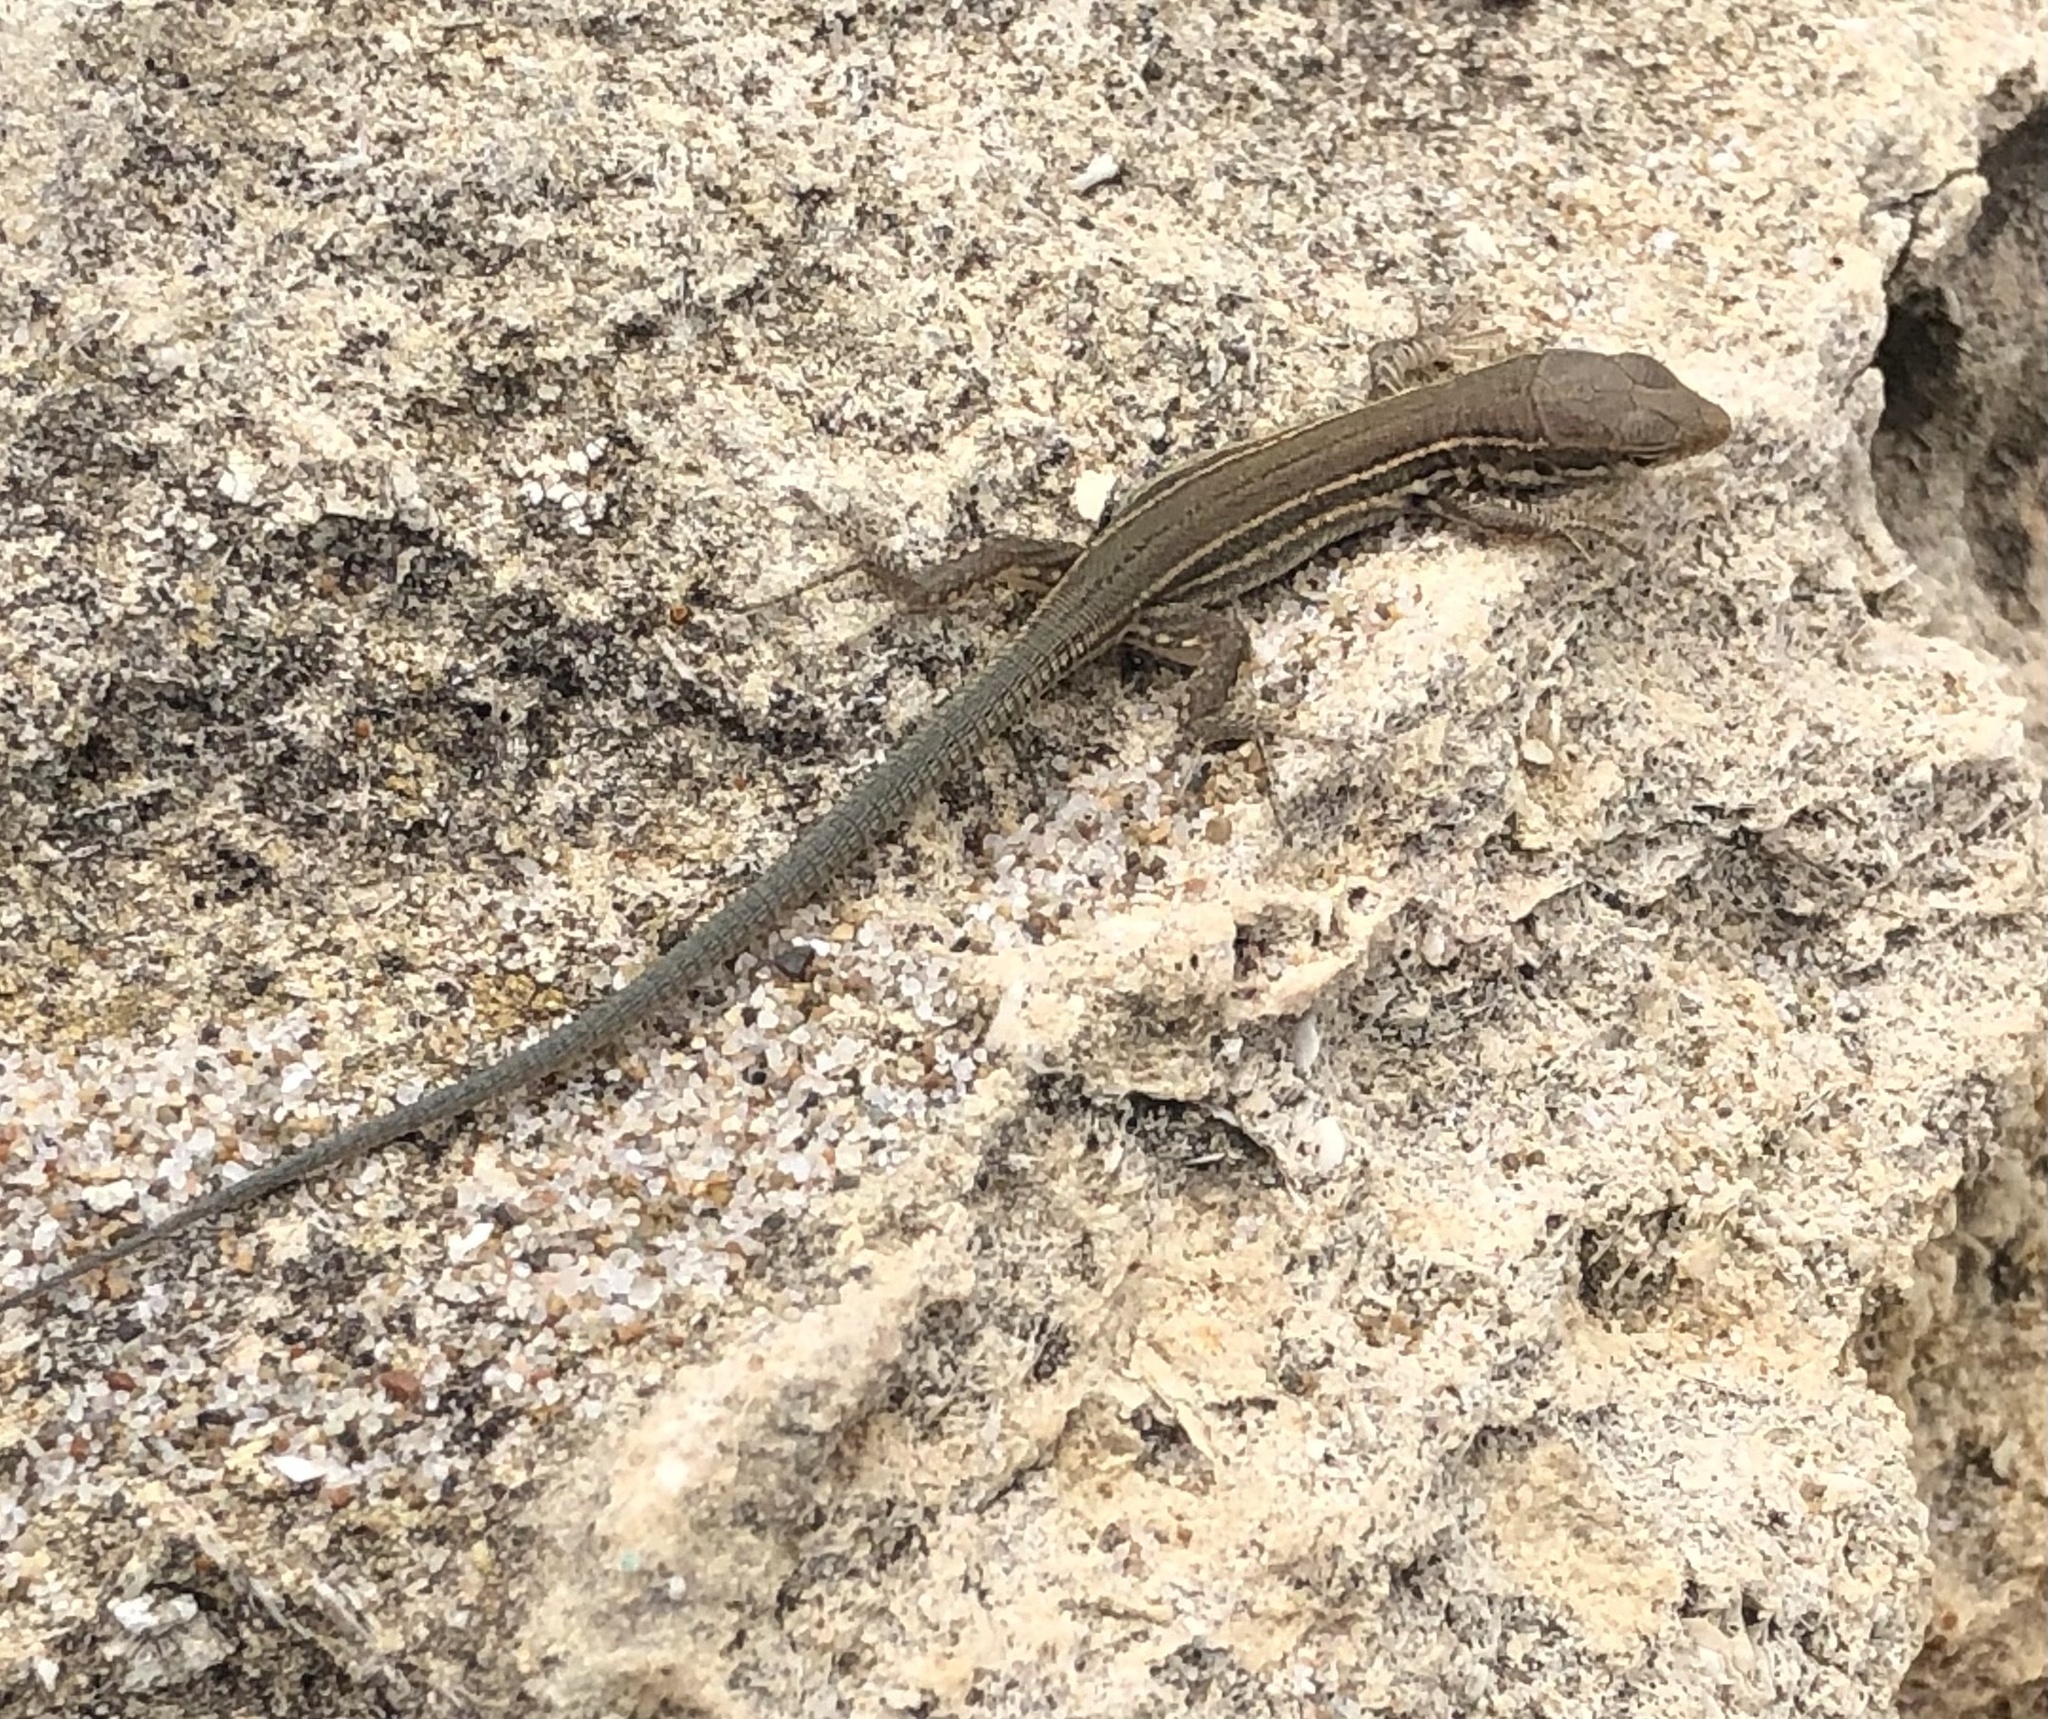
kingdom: Animalia
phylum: Chordata
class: Squamata
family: Lacertidae
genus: Podarcis
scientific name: Podarcis liolepis
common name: Catalonian wall lizard
